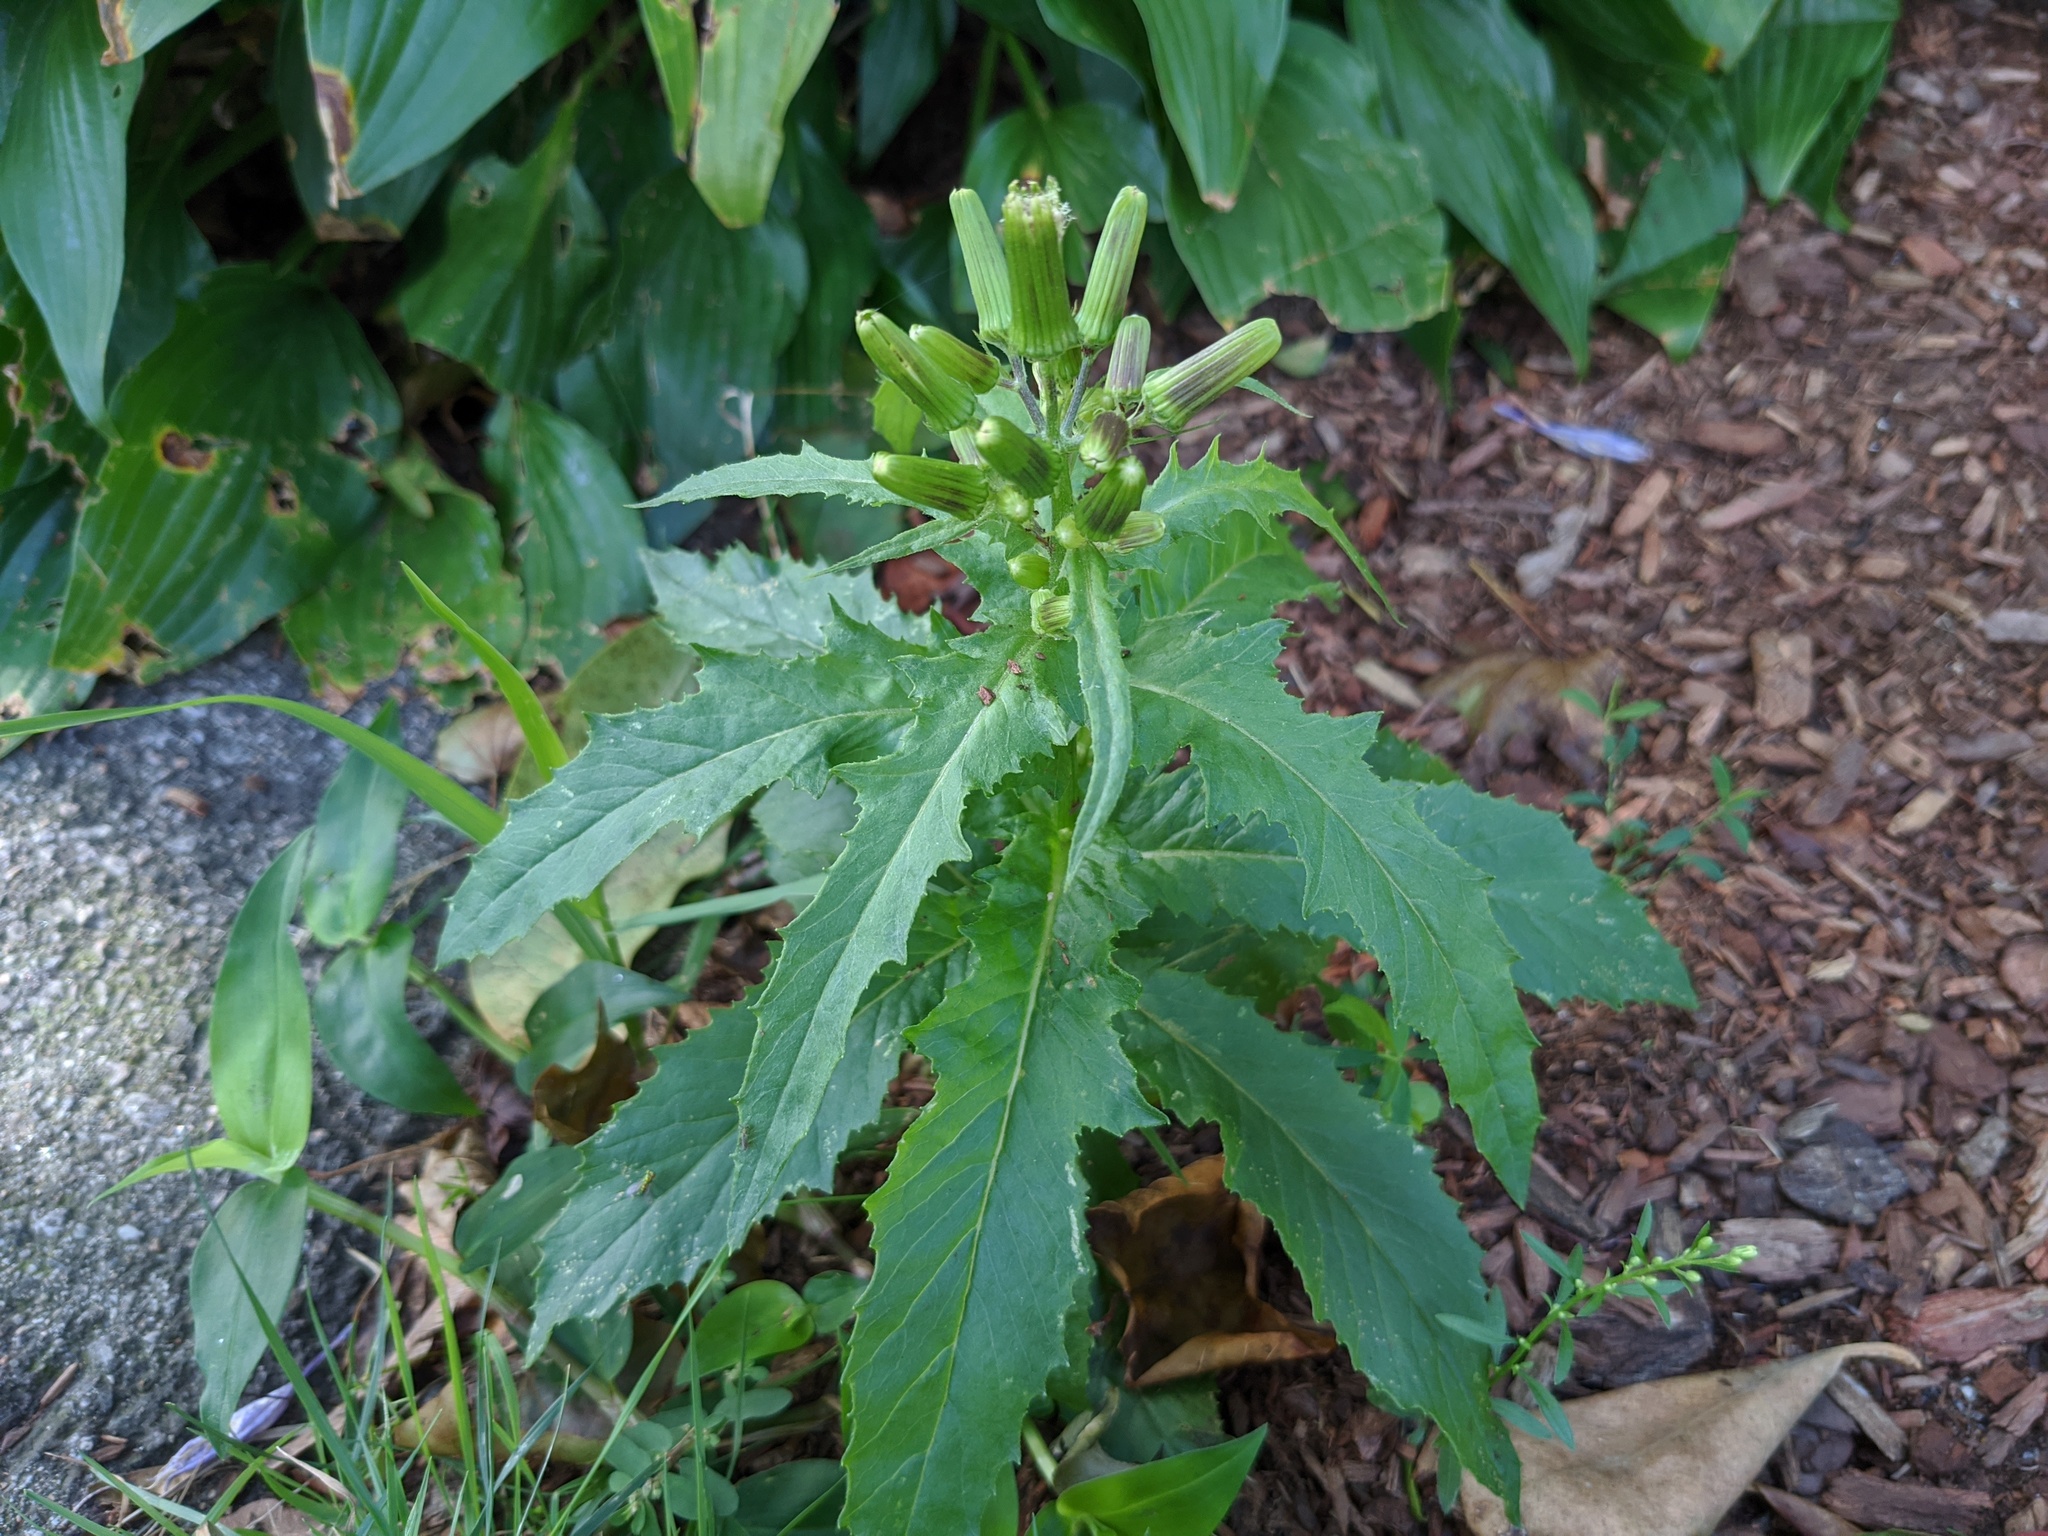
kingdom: Plantae
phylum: Tracheophyta
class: Magnoliopsida
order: Asterales
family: Asteraceae
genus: Erechtites
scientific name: Erechtites hieraciifolius
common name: American burnweed
